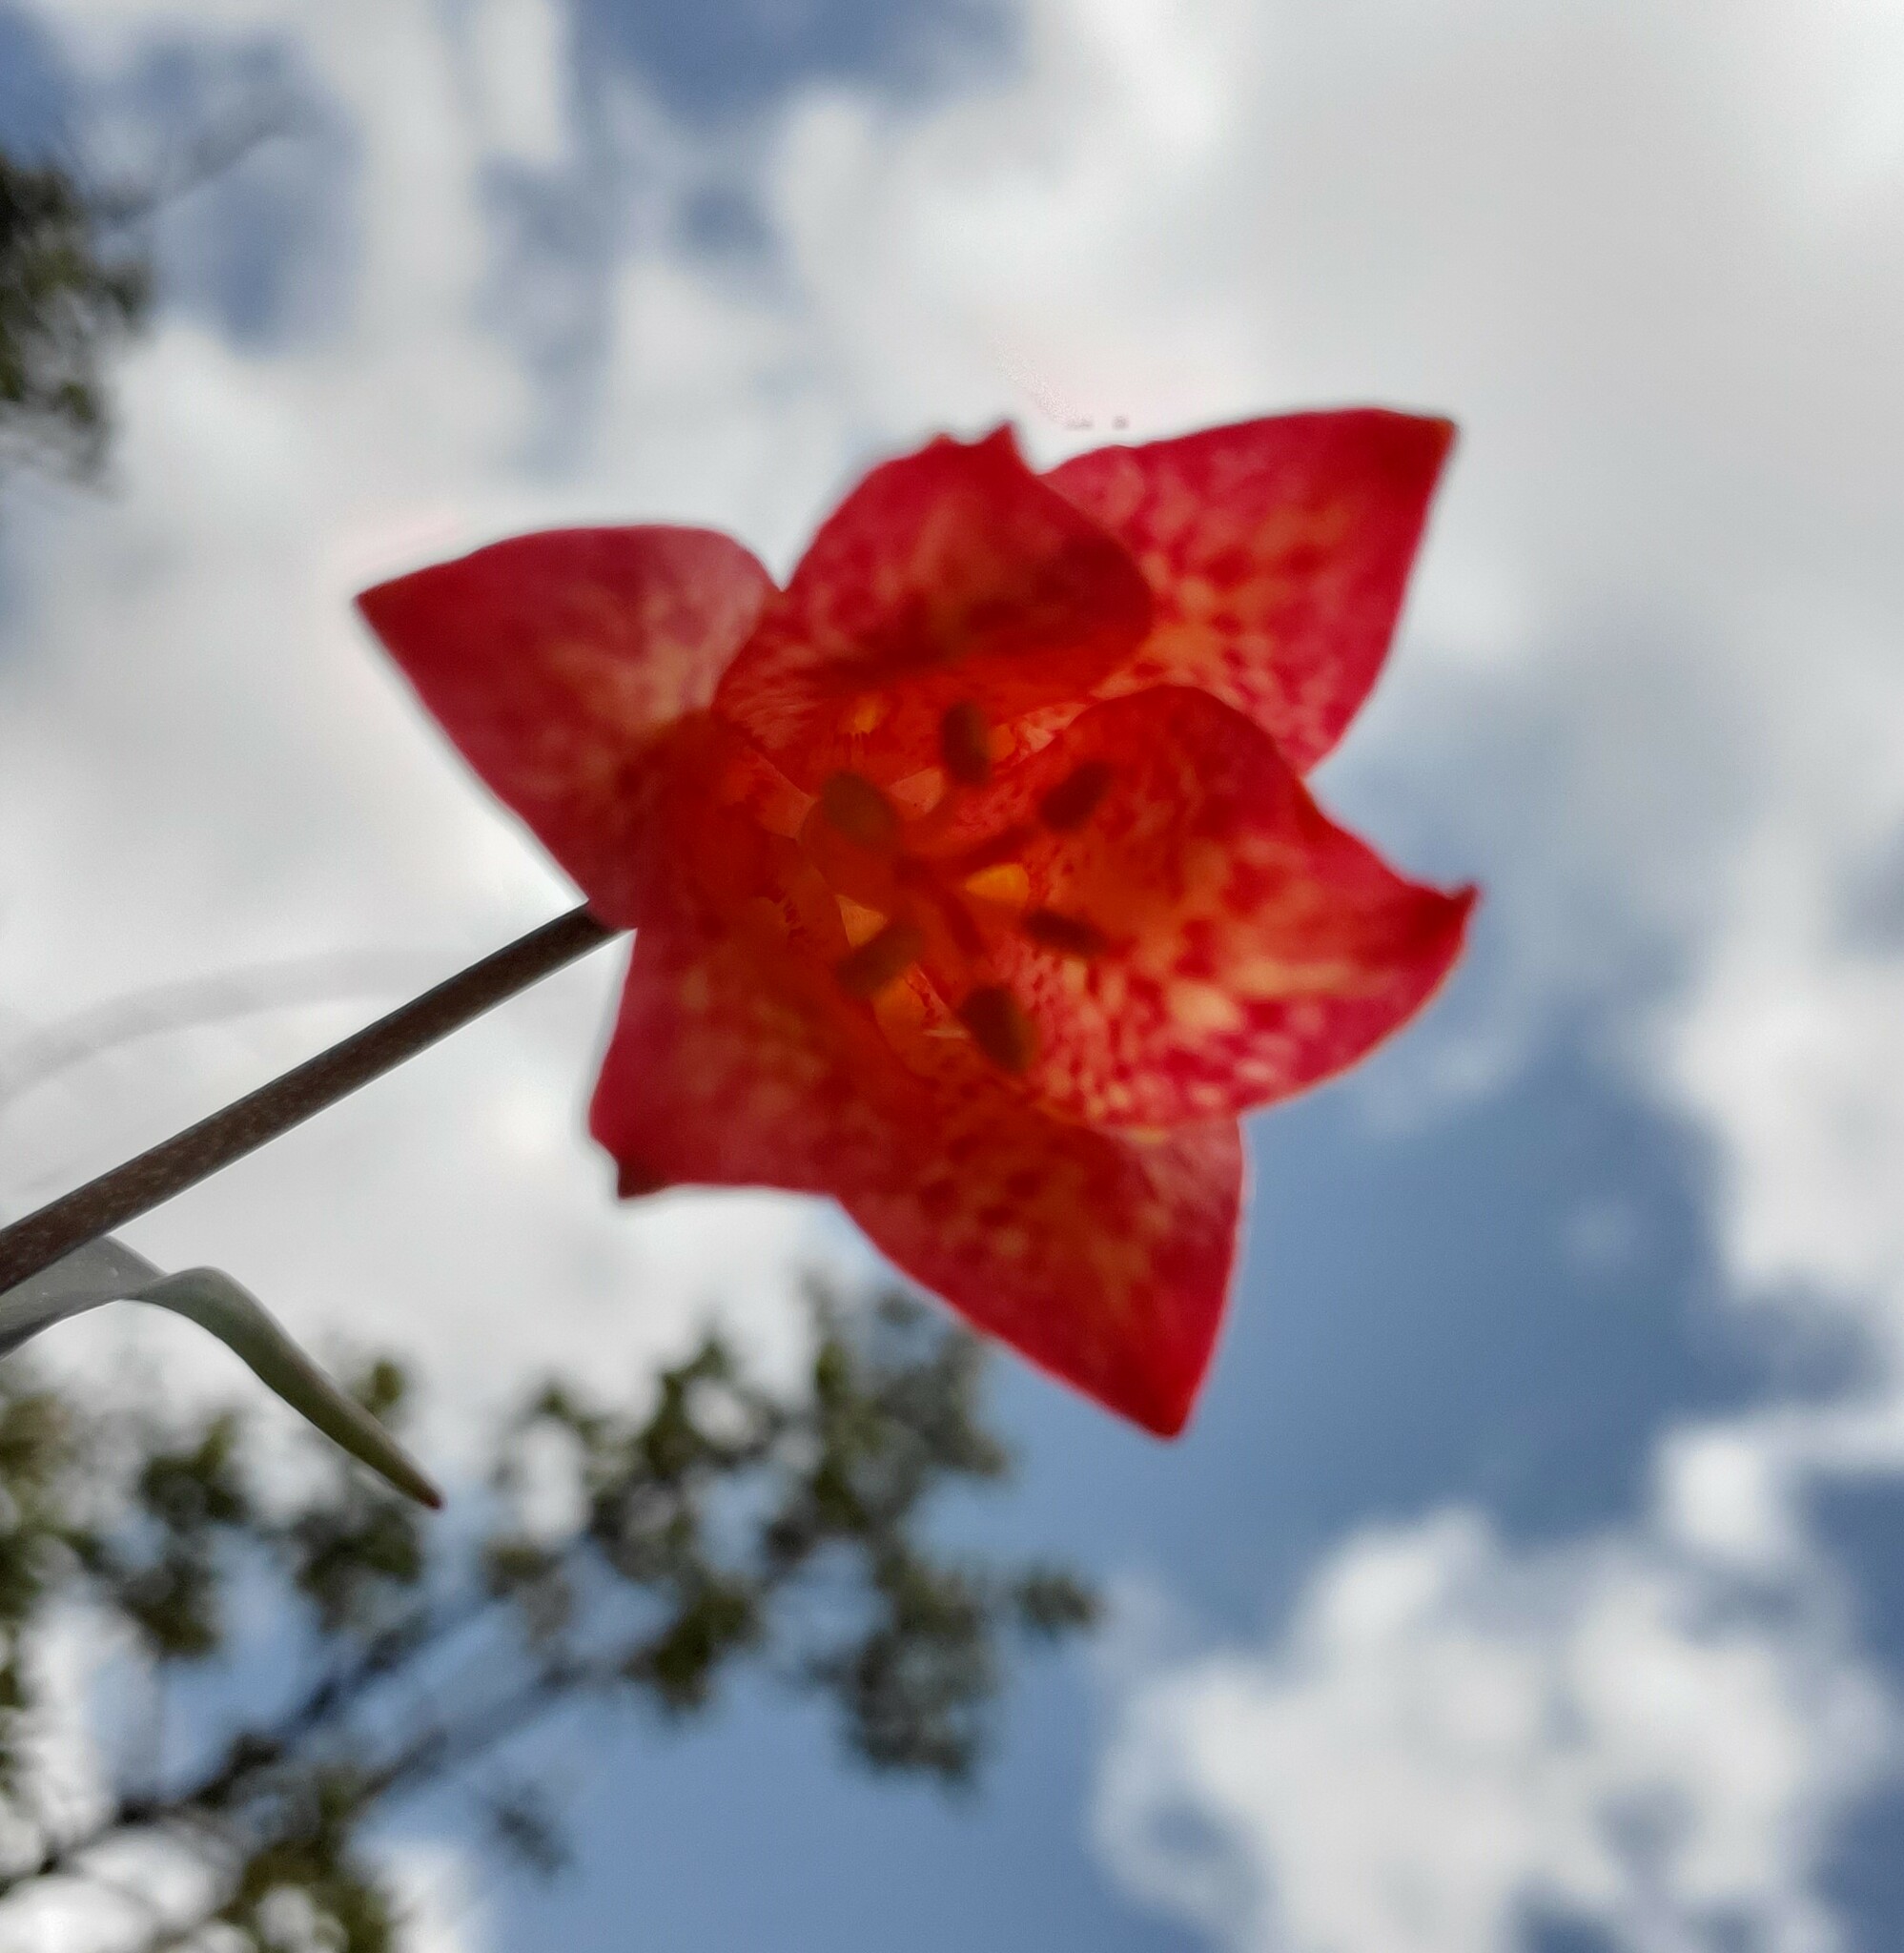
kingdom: Plantae
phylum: Tracheophyta
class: Liliopsida
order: Liliales
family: Liliaceae
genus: Fritillaria
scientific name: Fritillaria recurva
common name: Scarlet fritillary
